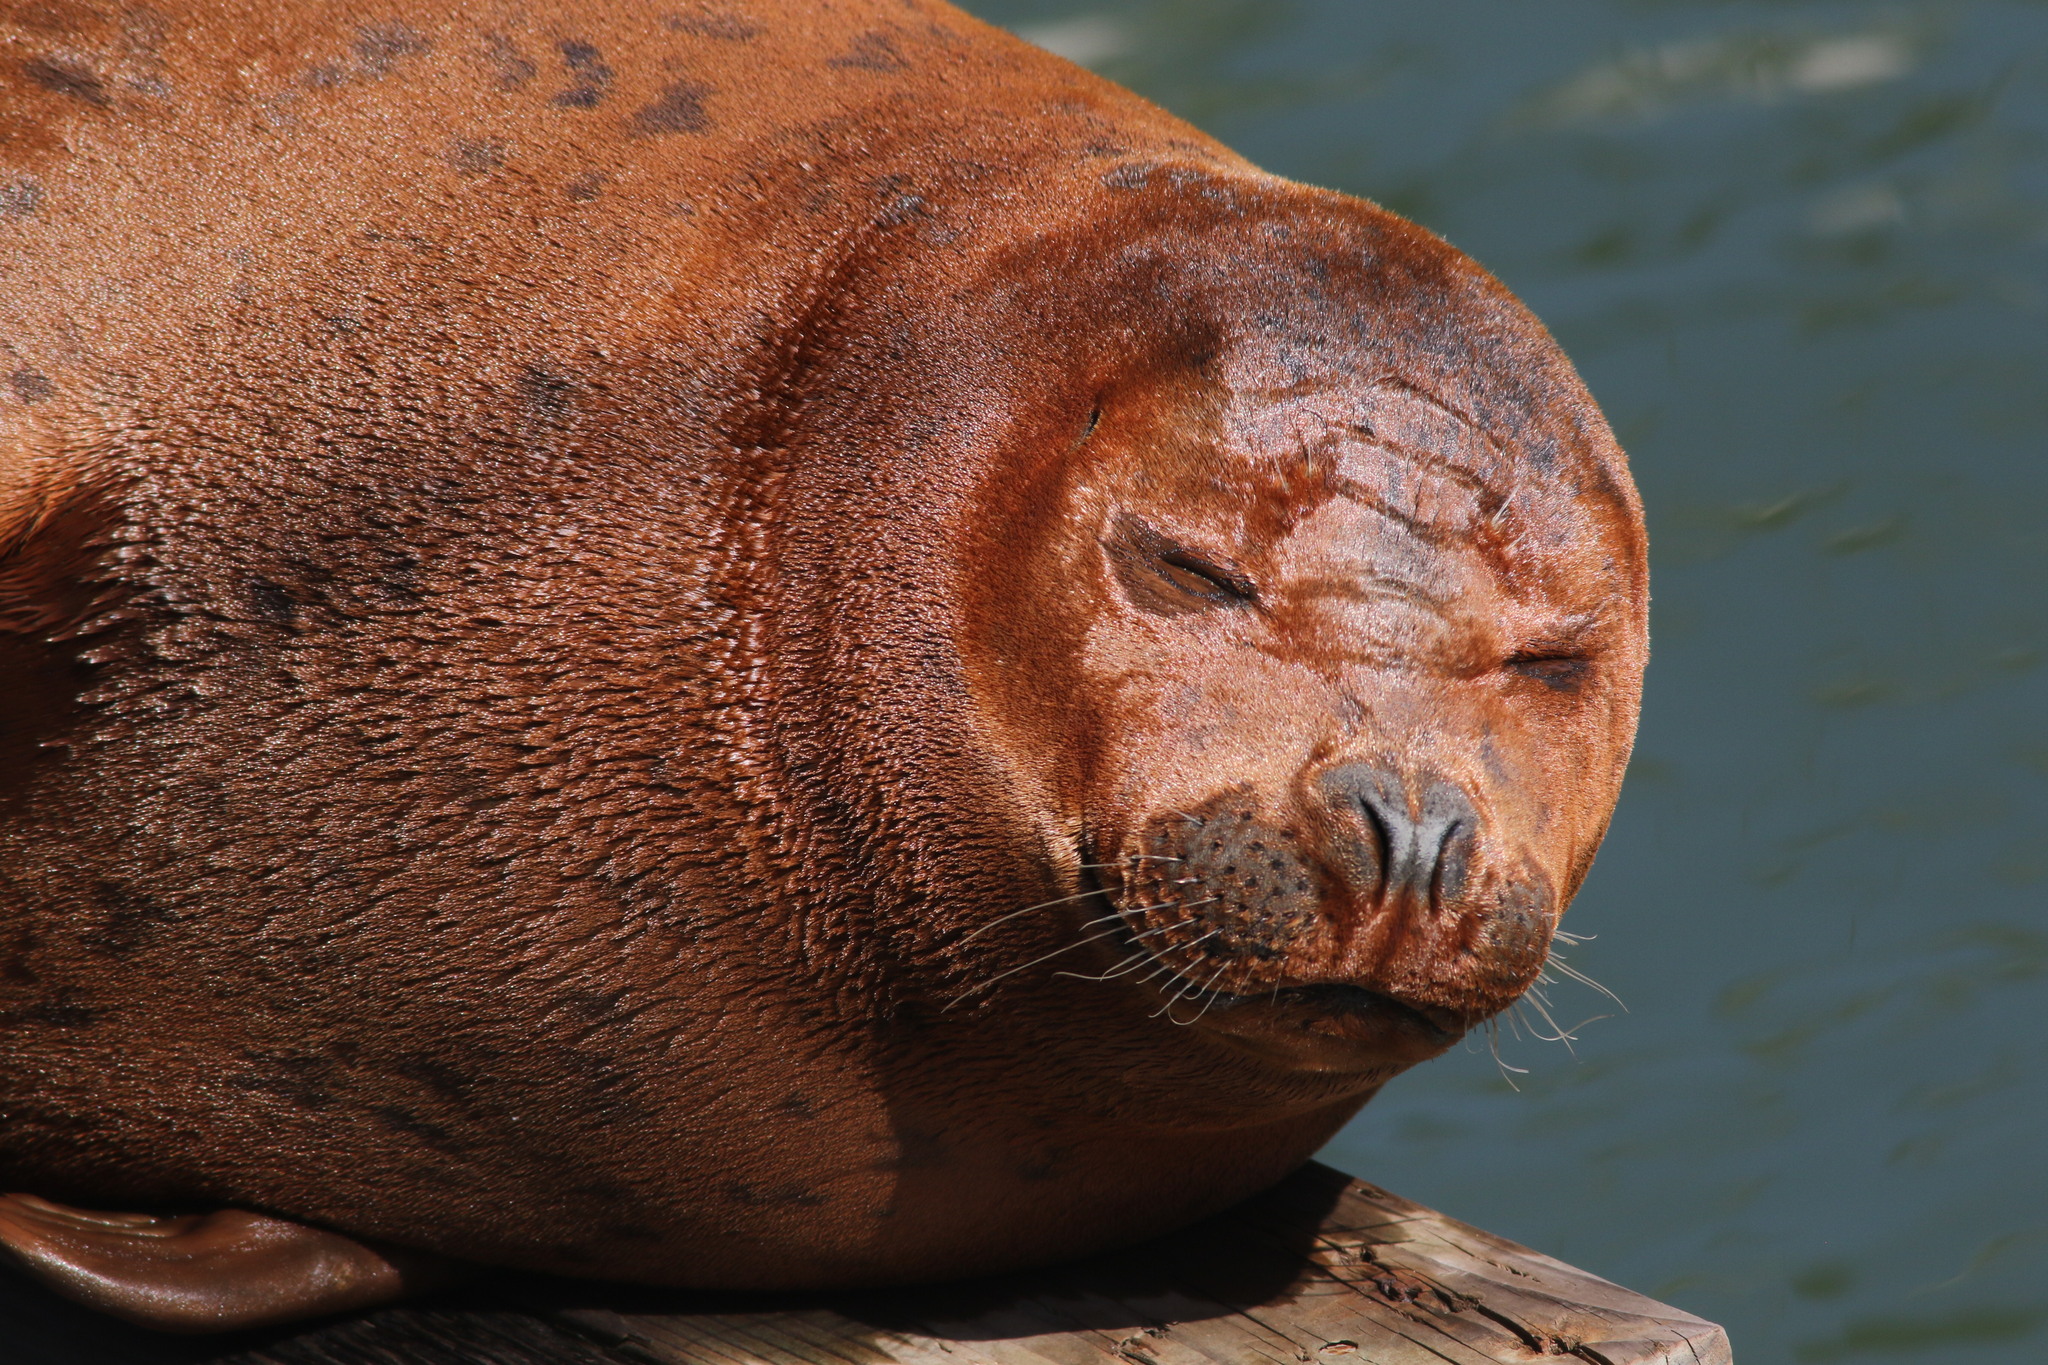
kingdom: Animalia
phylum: Chordata
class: Mammalia
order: Carnivora
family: Phocidae
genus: Phoca
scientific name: Phoca vitulina
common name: Harbor seal
